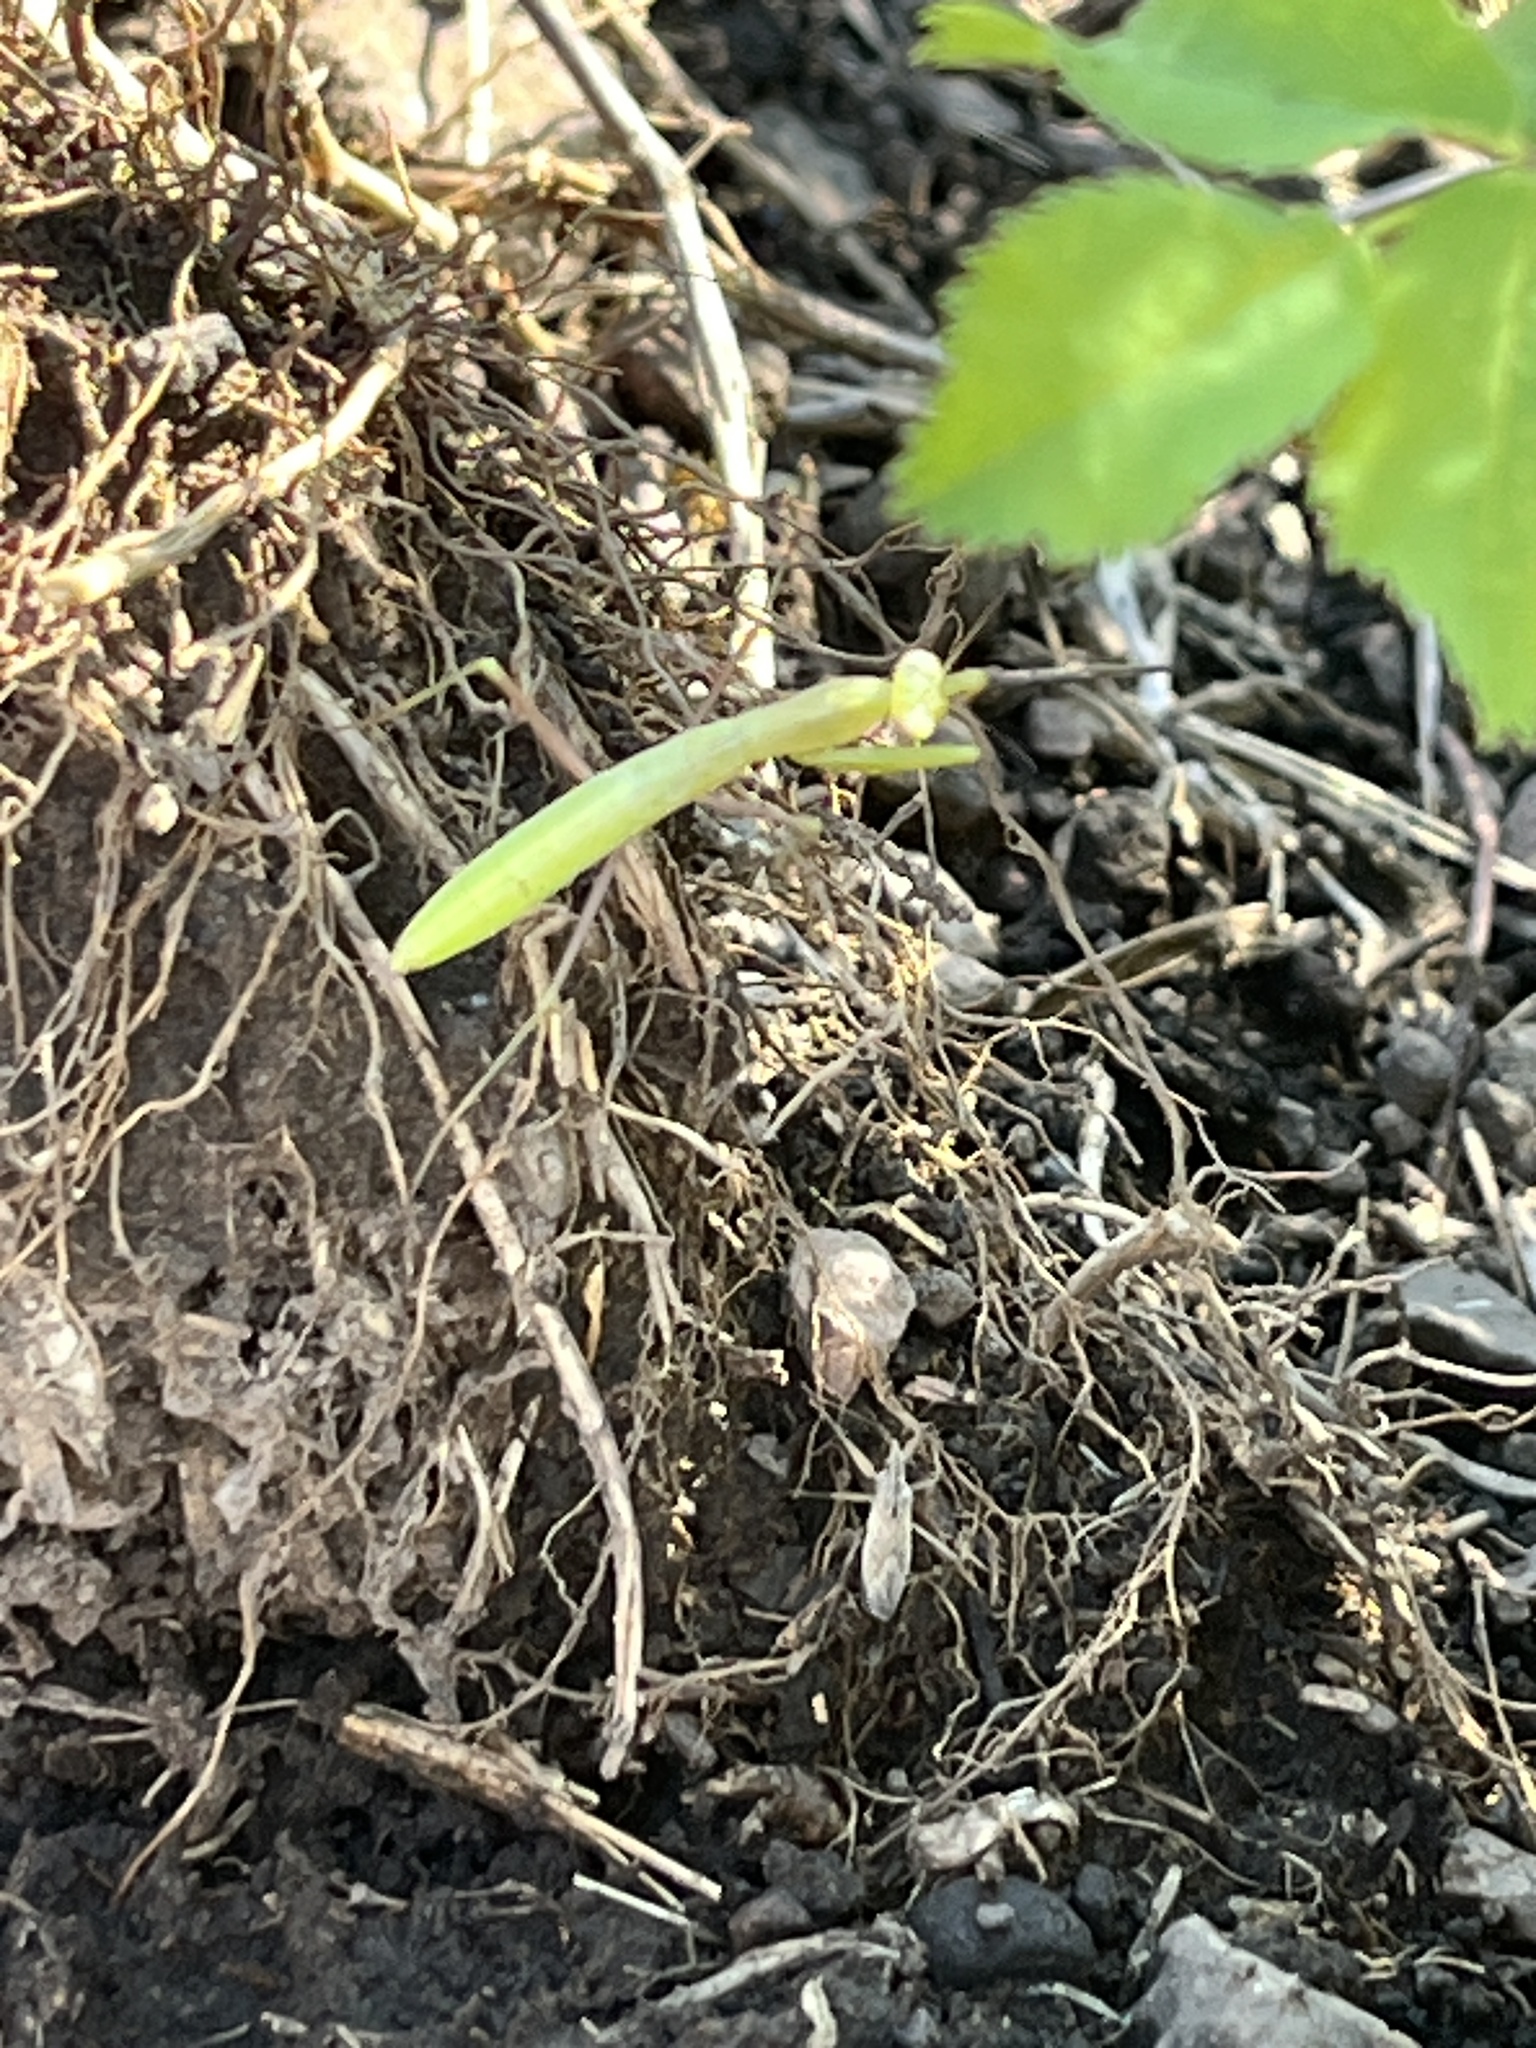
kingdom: Animalia
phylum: Arthropoda
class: Insecta
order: Mantodea
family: Mantidae
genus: Mantis
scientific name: Mantis religiosa
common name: Praying mantis
